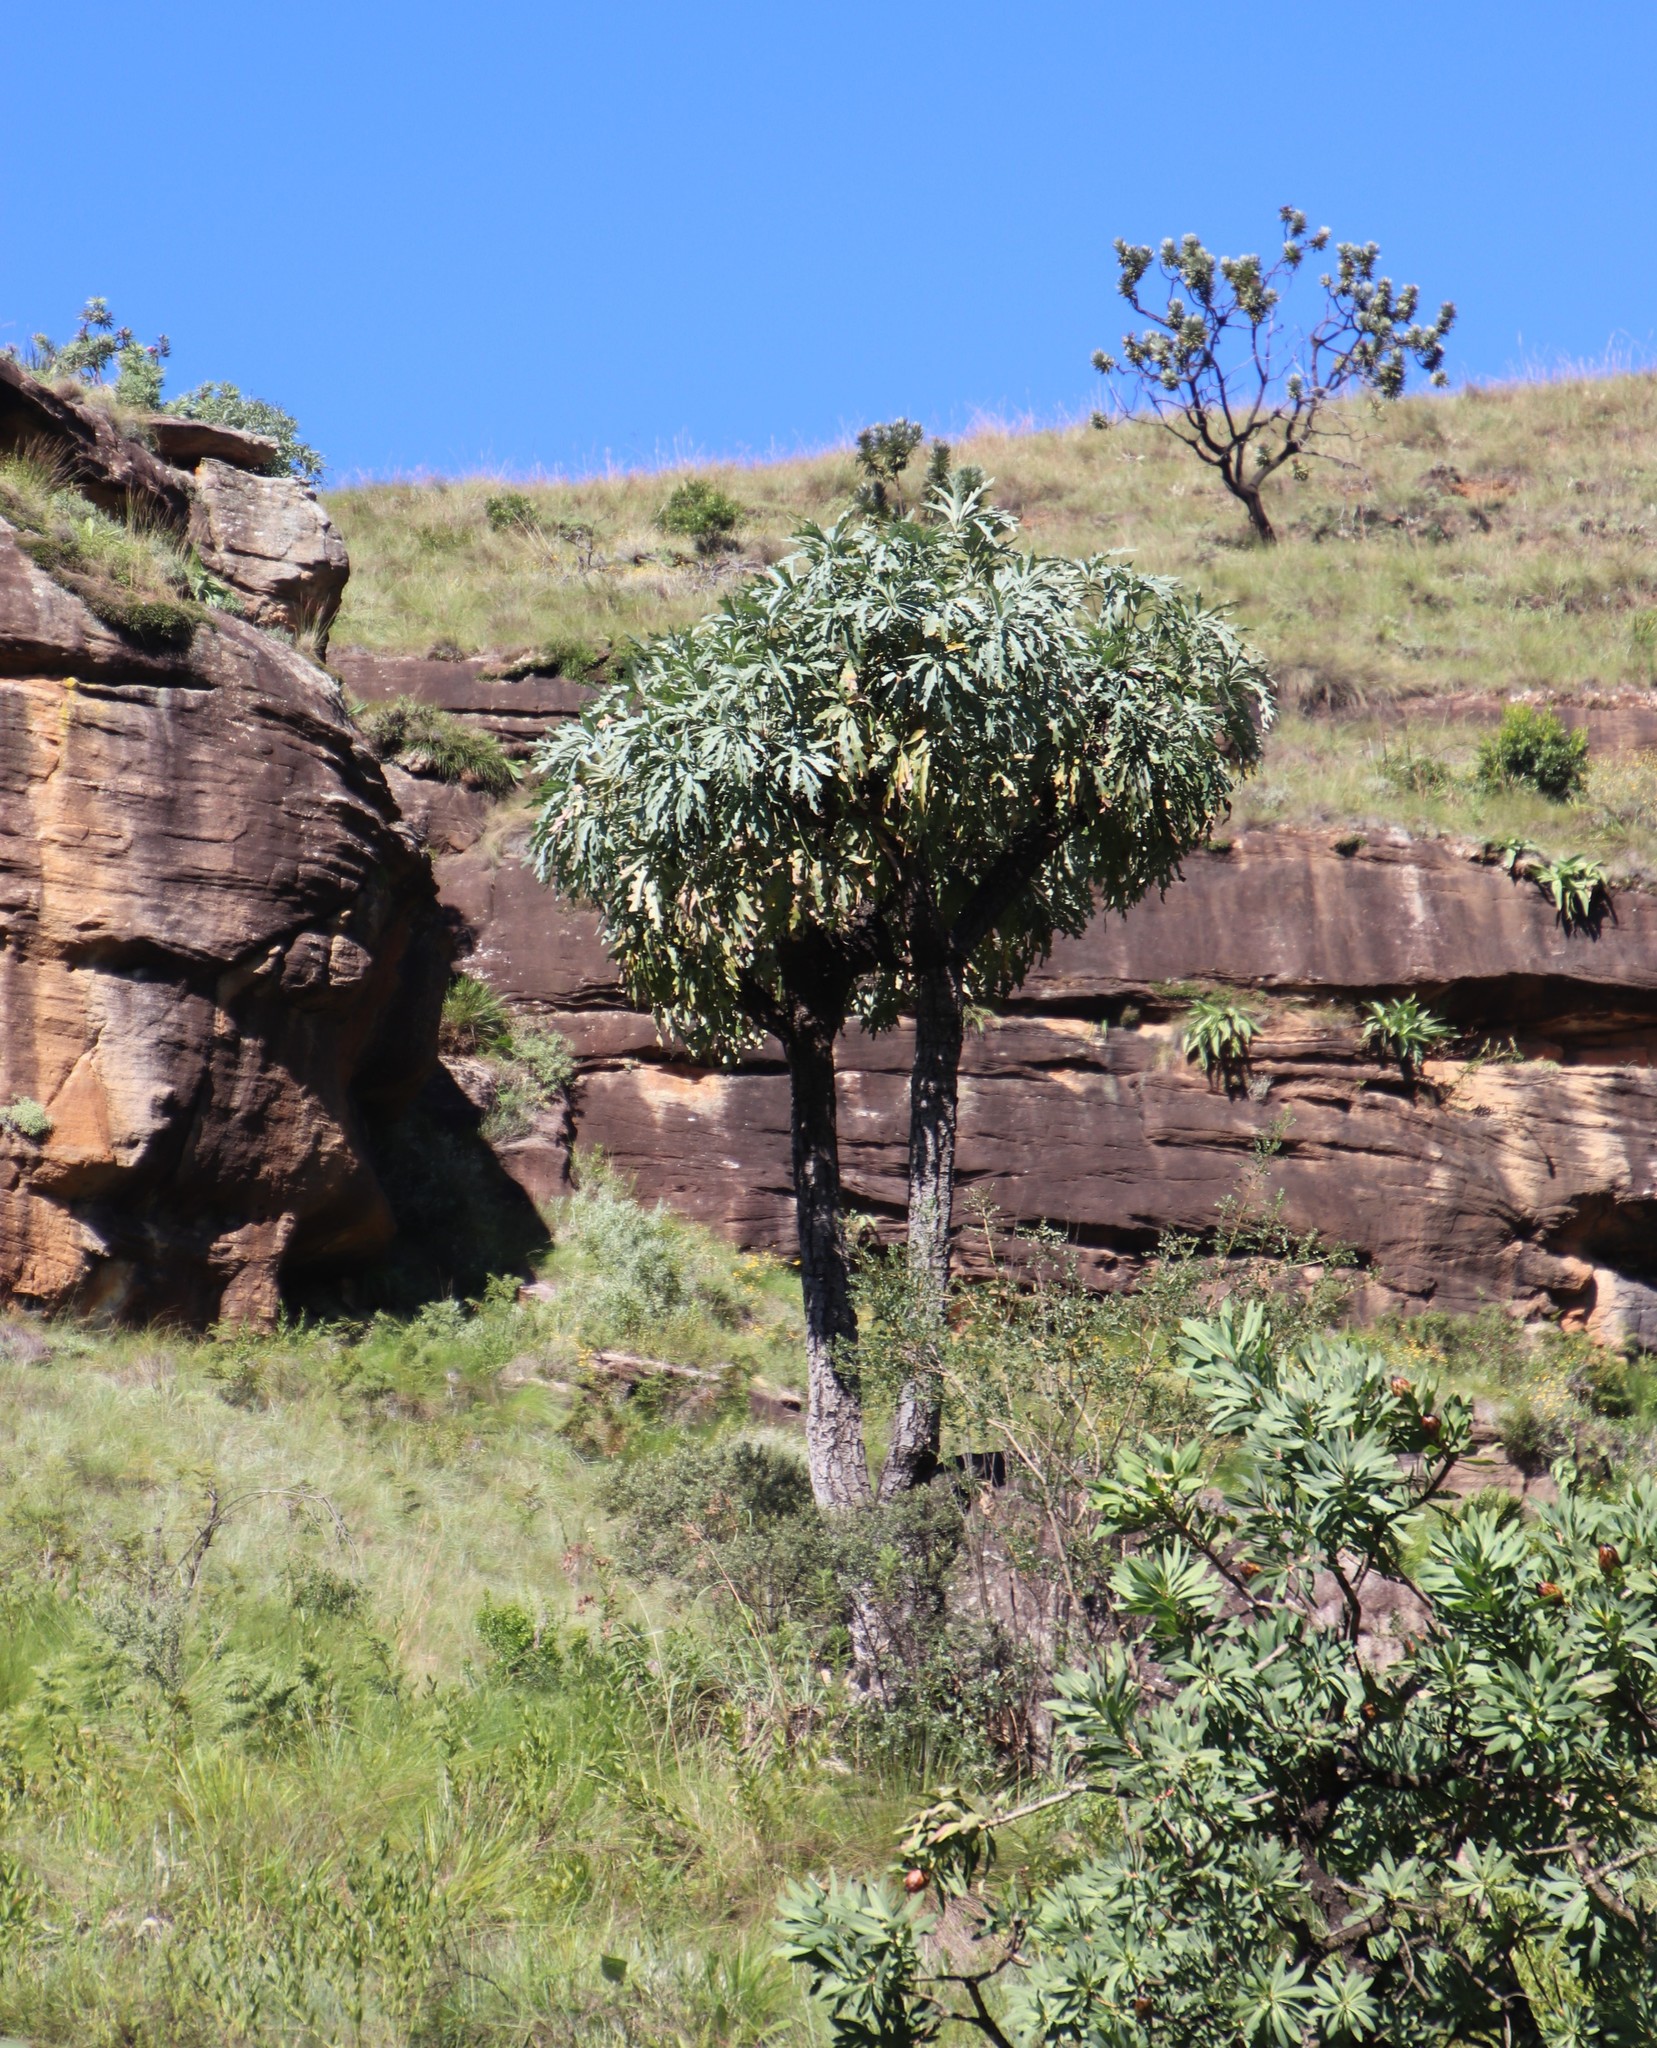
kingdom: Plantae
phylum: Tracheophyta
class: Magnoliopsida
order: Apiales
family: Araliaceae
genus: Cussonia
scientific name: Cussonia paniculata
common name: Cabbagetree
